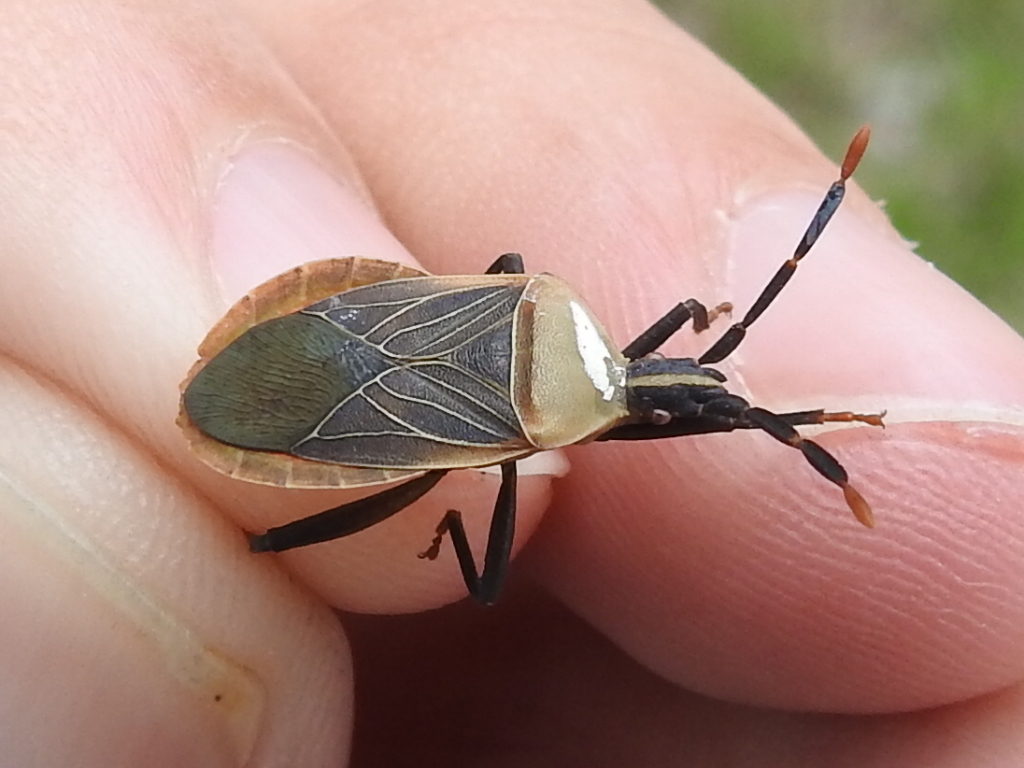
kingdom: Animalia
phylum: Arthropoda
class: Insecta
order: Hemiptera
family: Coreidae
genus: Chelinidea
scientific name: Chelinidea vittiger
